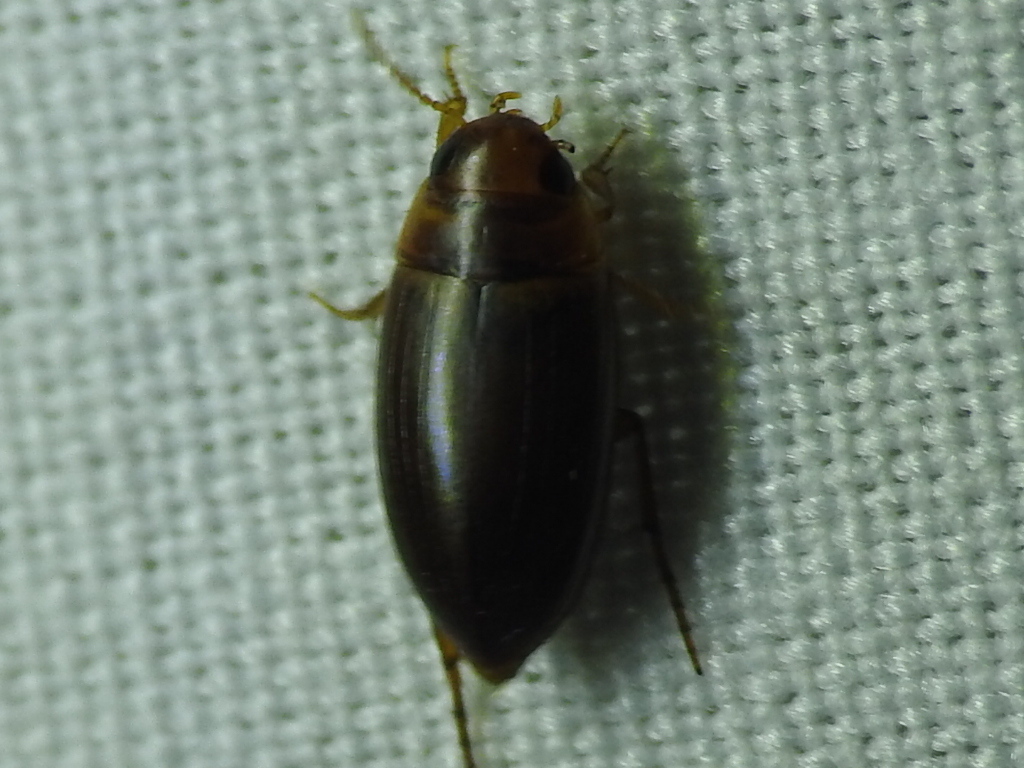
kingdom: Animalia
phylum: Arthropoda
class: Insecta
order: Coleoptera
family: Dytiscidae
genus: Copelatus
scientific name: Copelatus debilis
